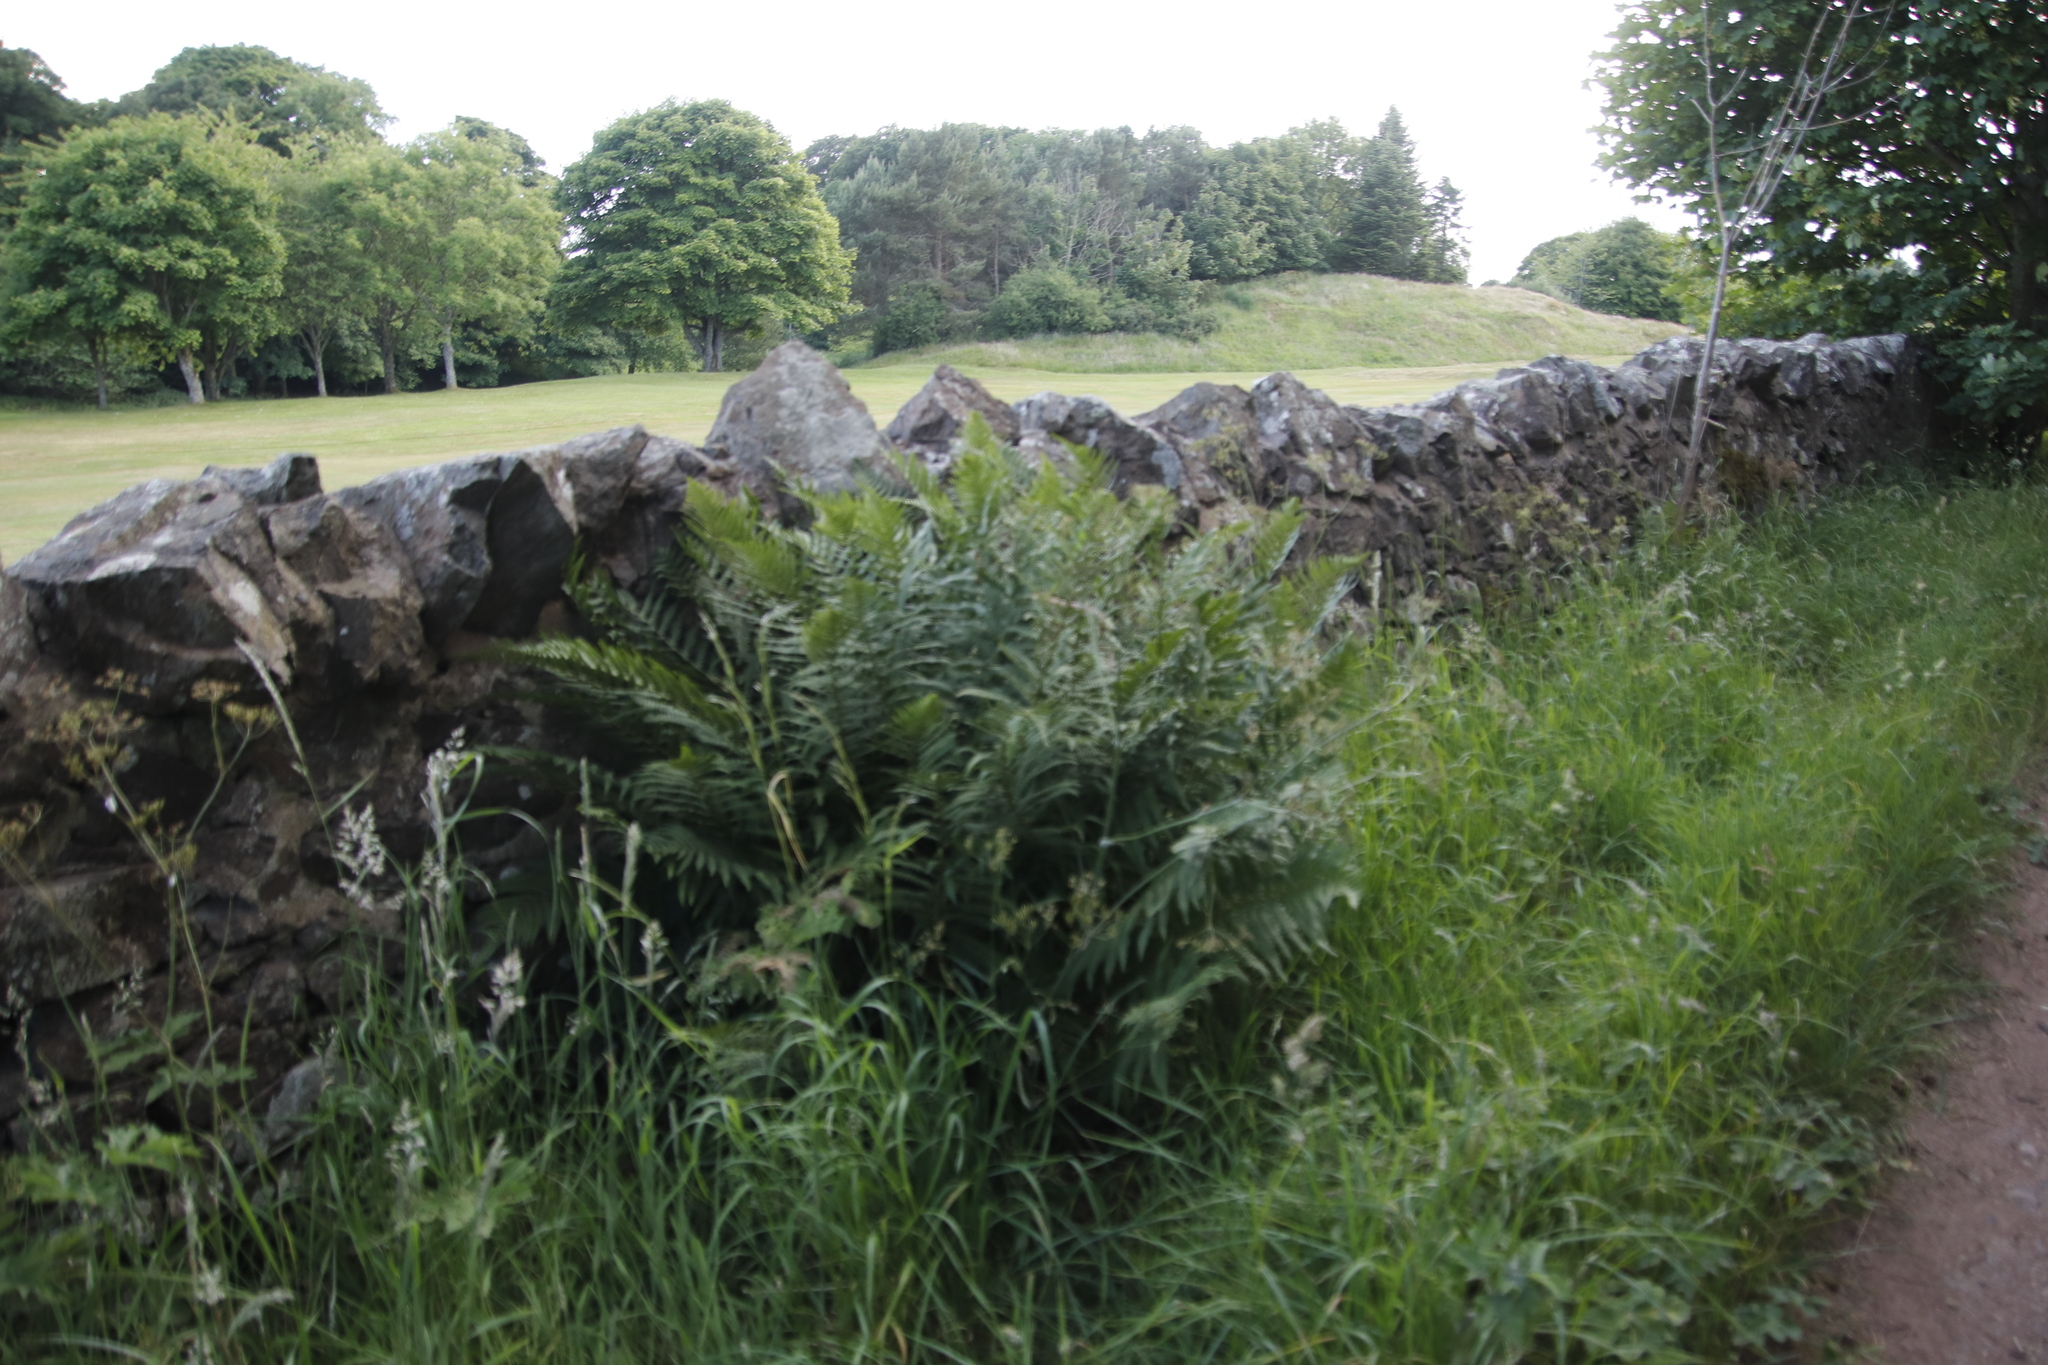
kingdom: Plantae
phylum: Tracheophyta
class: Polypodiopsida
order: Polypodiales
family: Dryopteridaceae
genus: Dryopteris
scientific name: Dryopteris filix-mas
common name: Male fern
